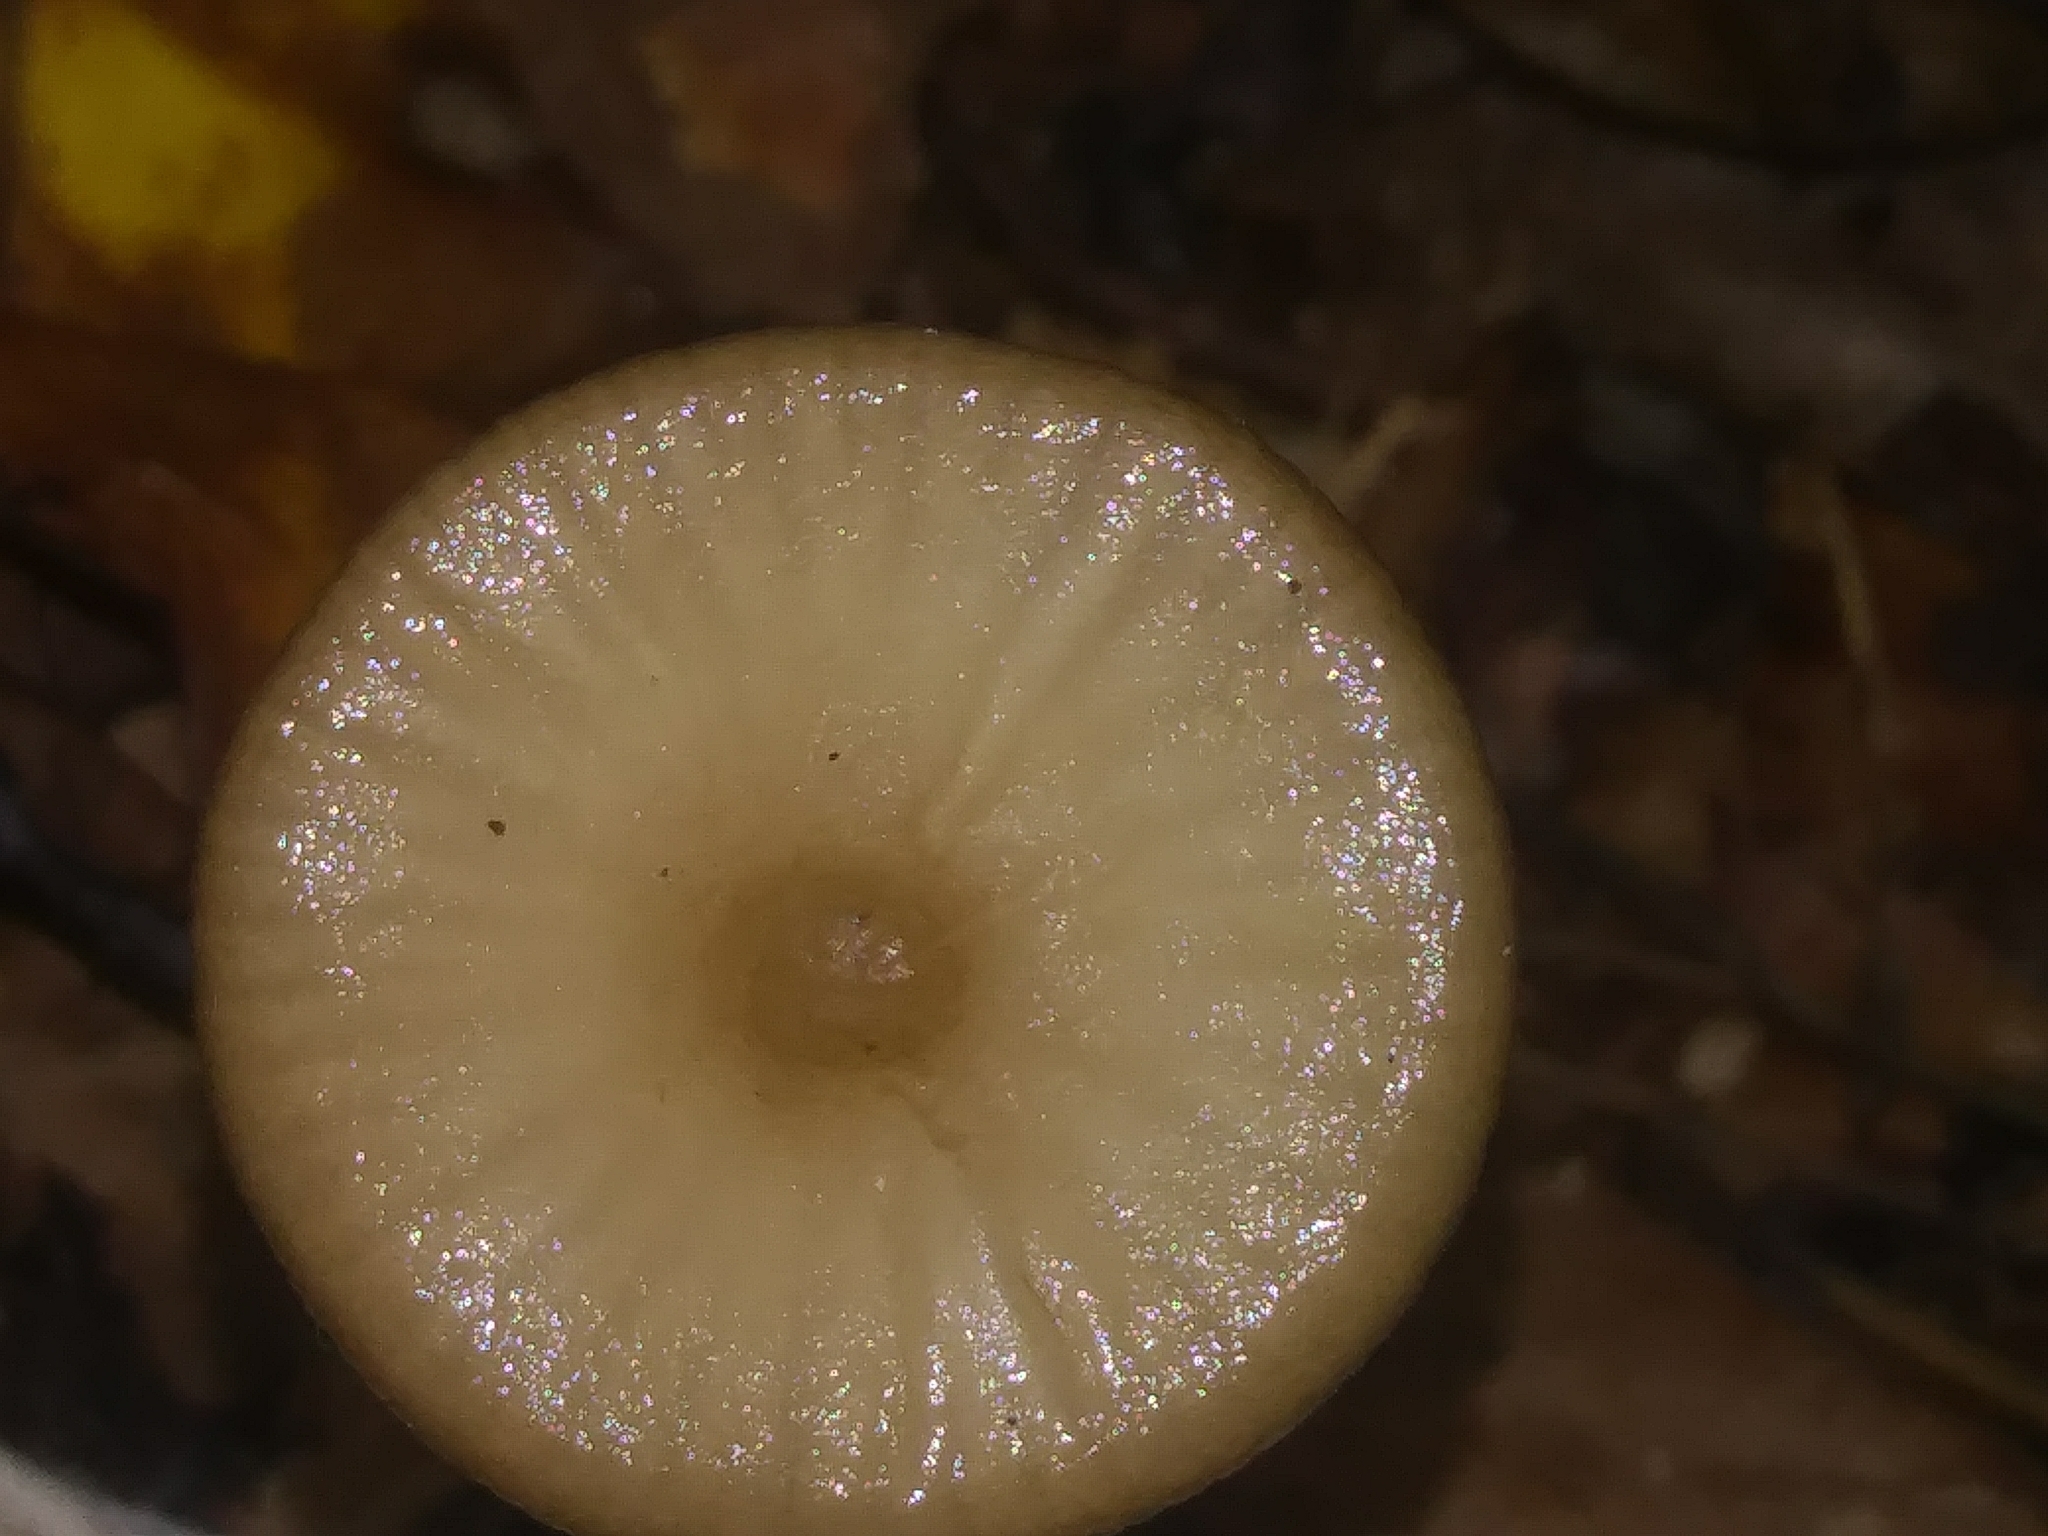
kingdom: Fungi
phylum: Basidiomycota
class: Agaricomycetes
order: Agaricales
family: Physalacriaceae
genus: Hymenopellis
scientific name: Hymenopellis furfuracea
